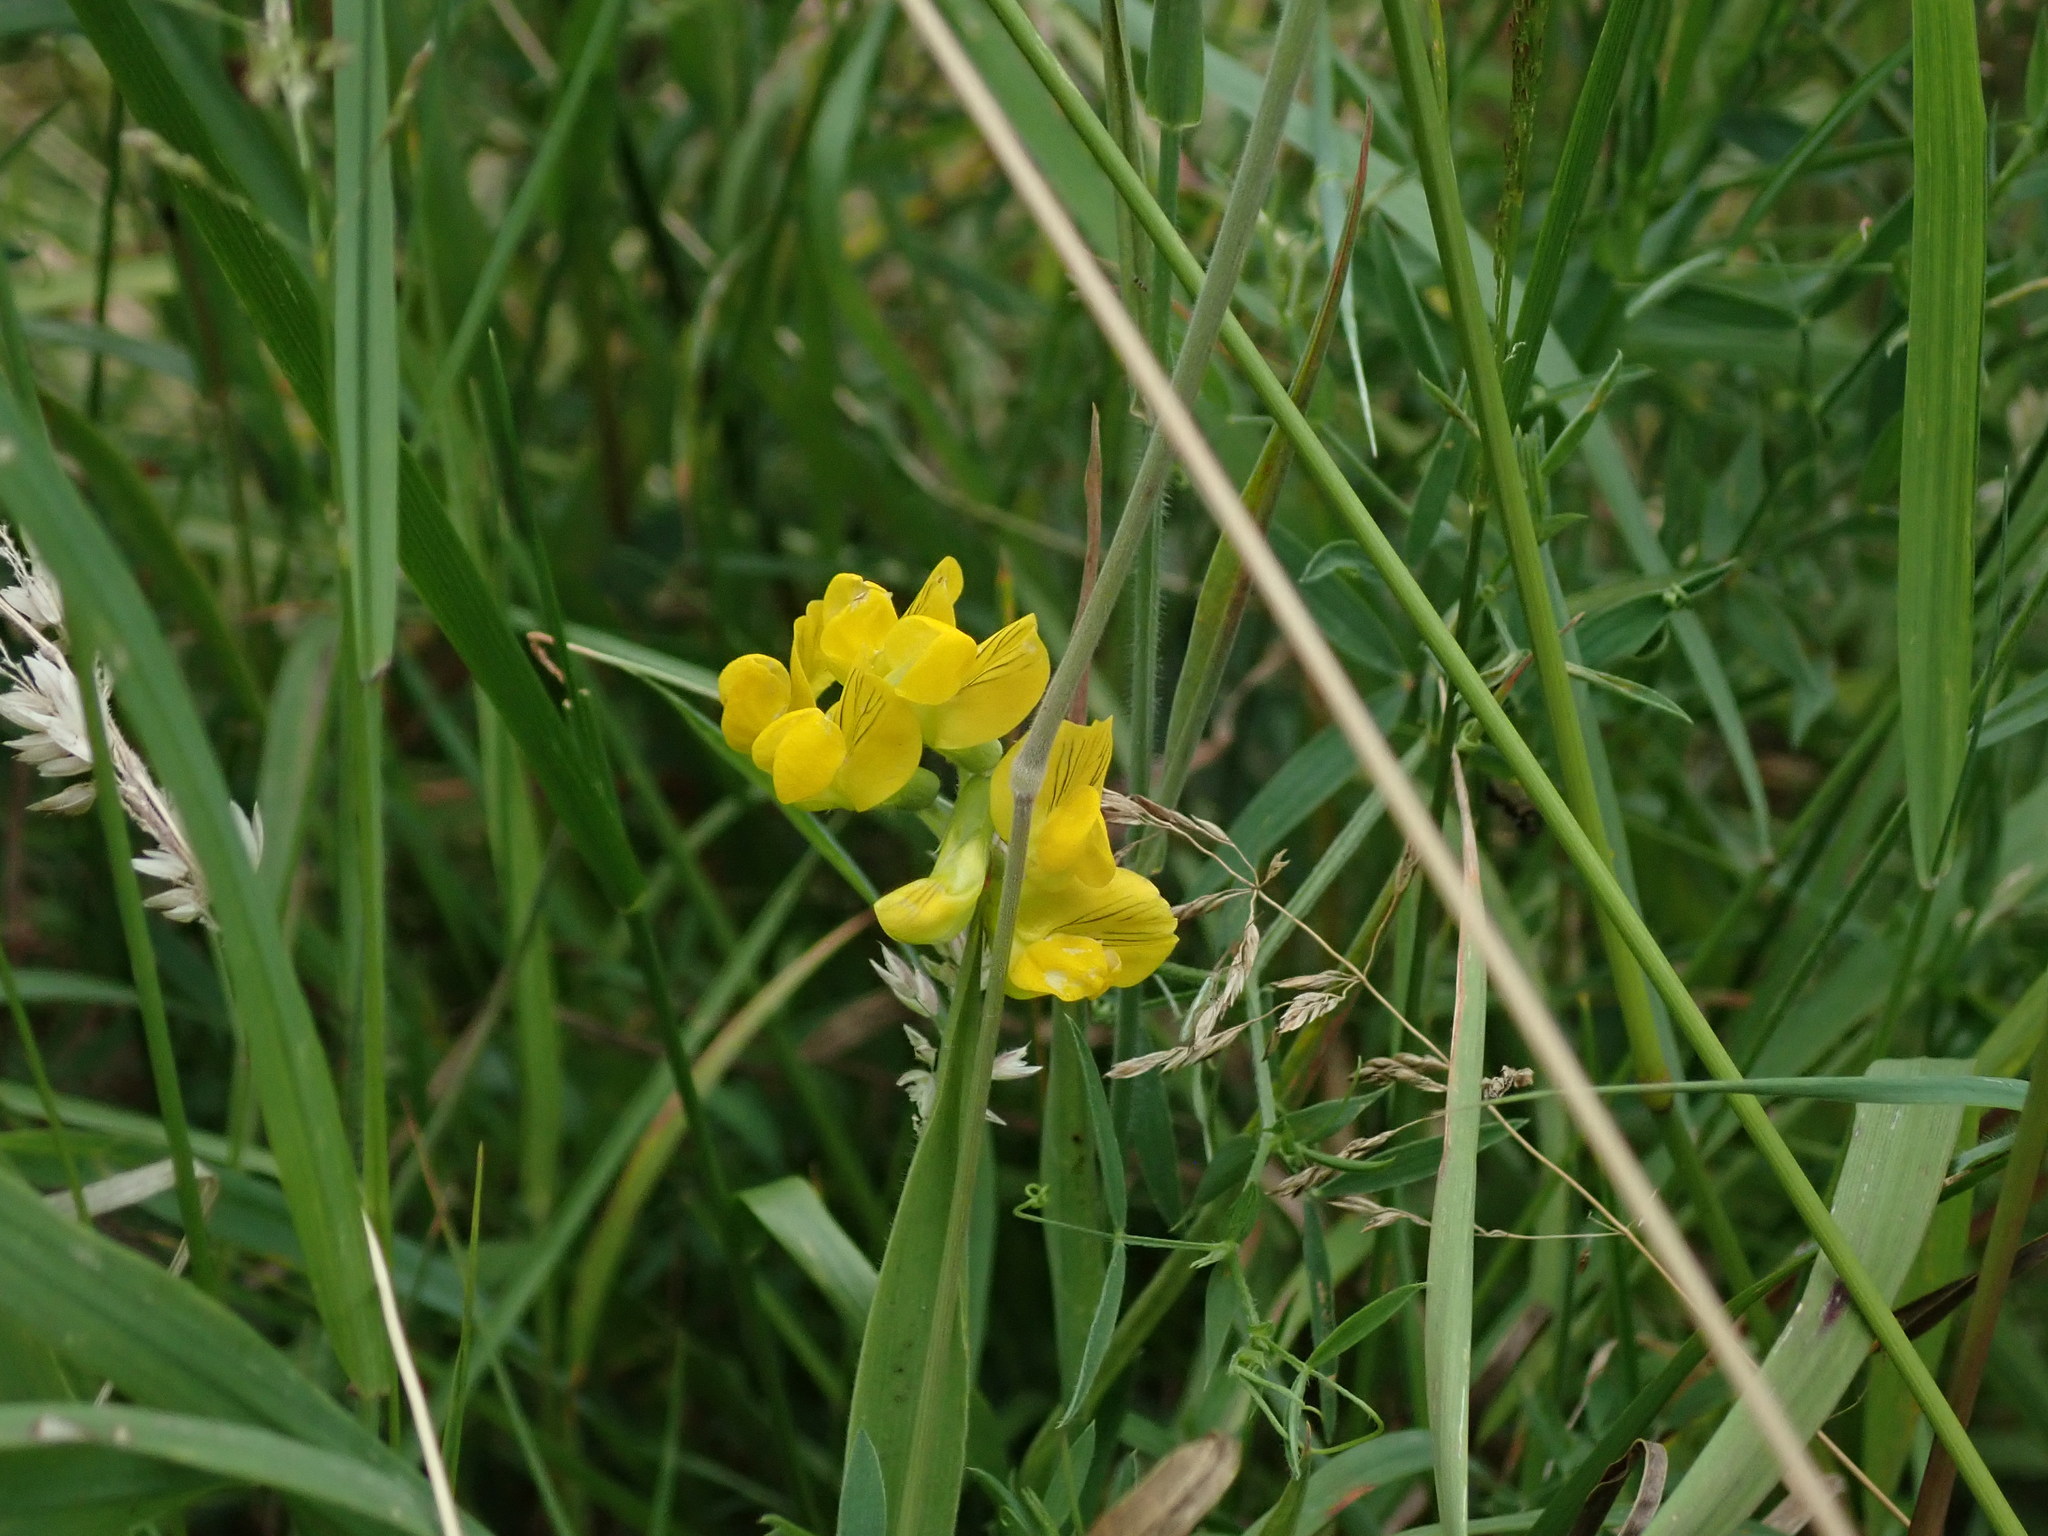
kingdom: Plantae
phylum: Tracheophyta
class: Magnoliopsida
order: Fabales
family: Fabaceae
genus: Lathyrus
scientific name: Lathyrus pratensis
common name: Meadow vetchling
